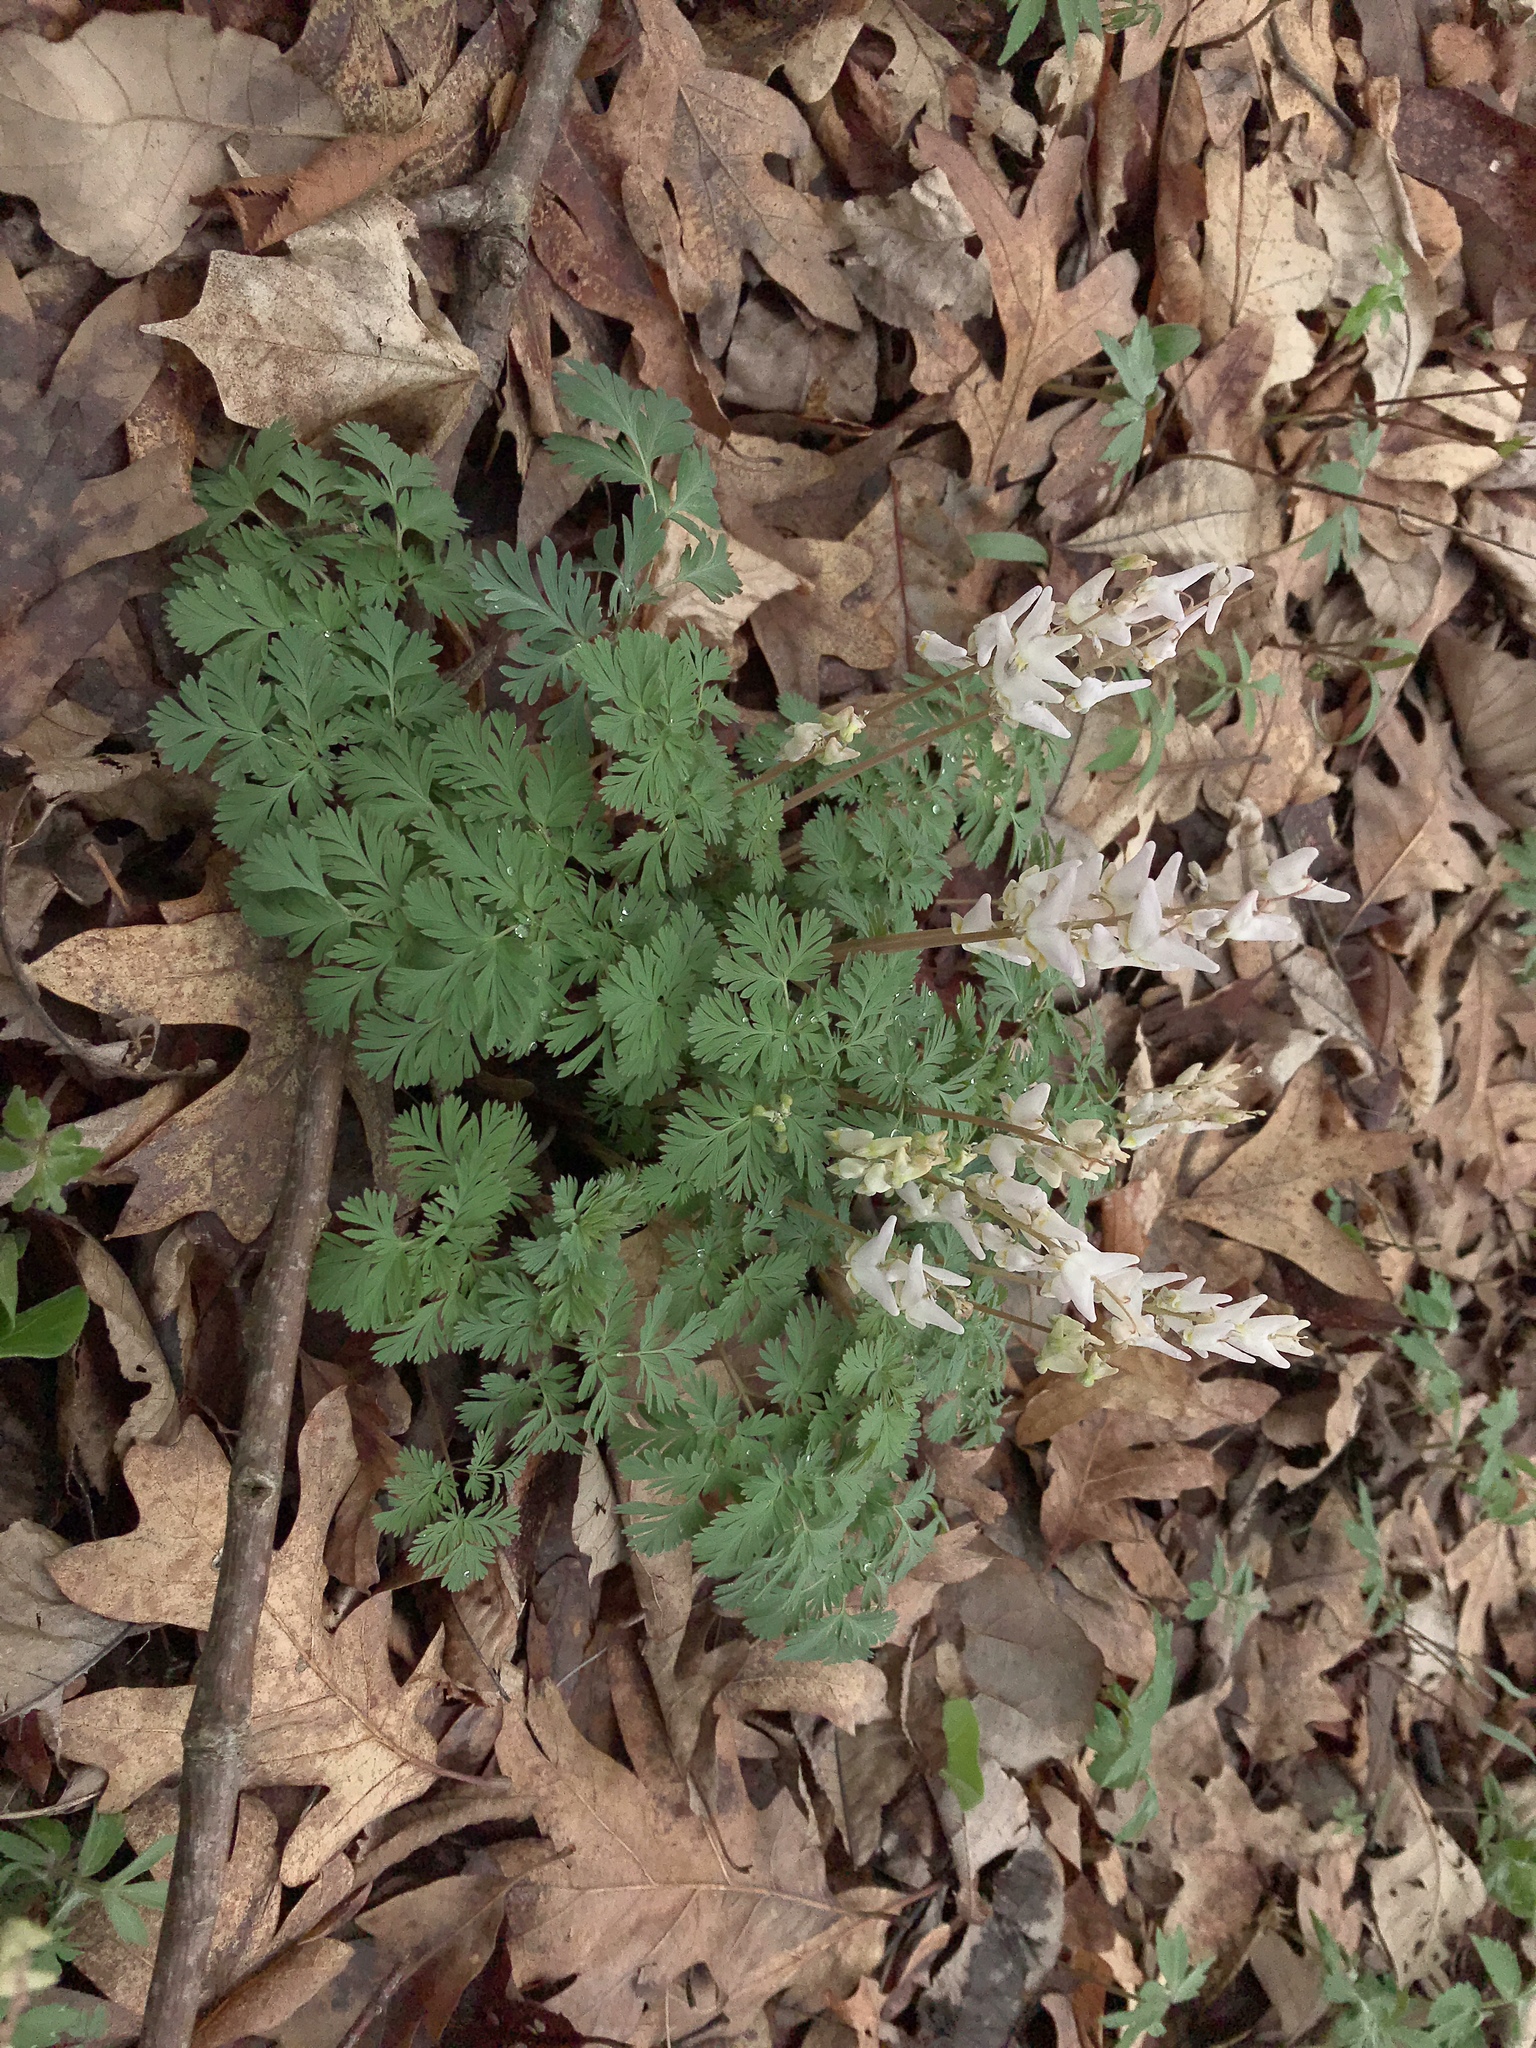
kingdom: Plantae
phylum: Tracheophyta
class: Magnoliopsida
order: Ranunculales
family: Papaveraceae
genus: Dicentra
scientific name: Dicentra cucullaria
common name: Dutchman's breeches
